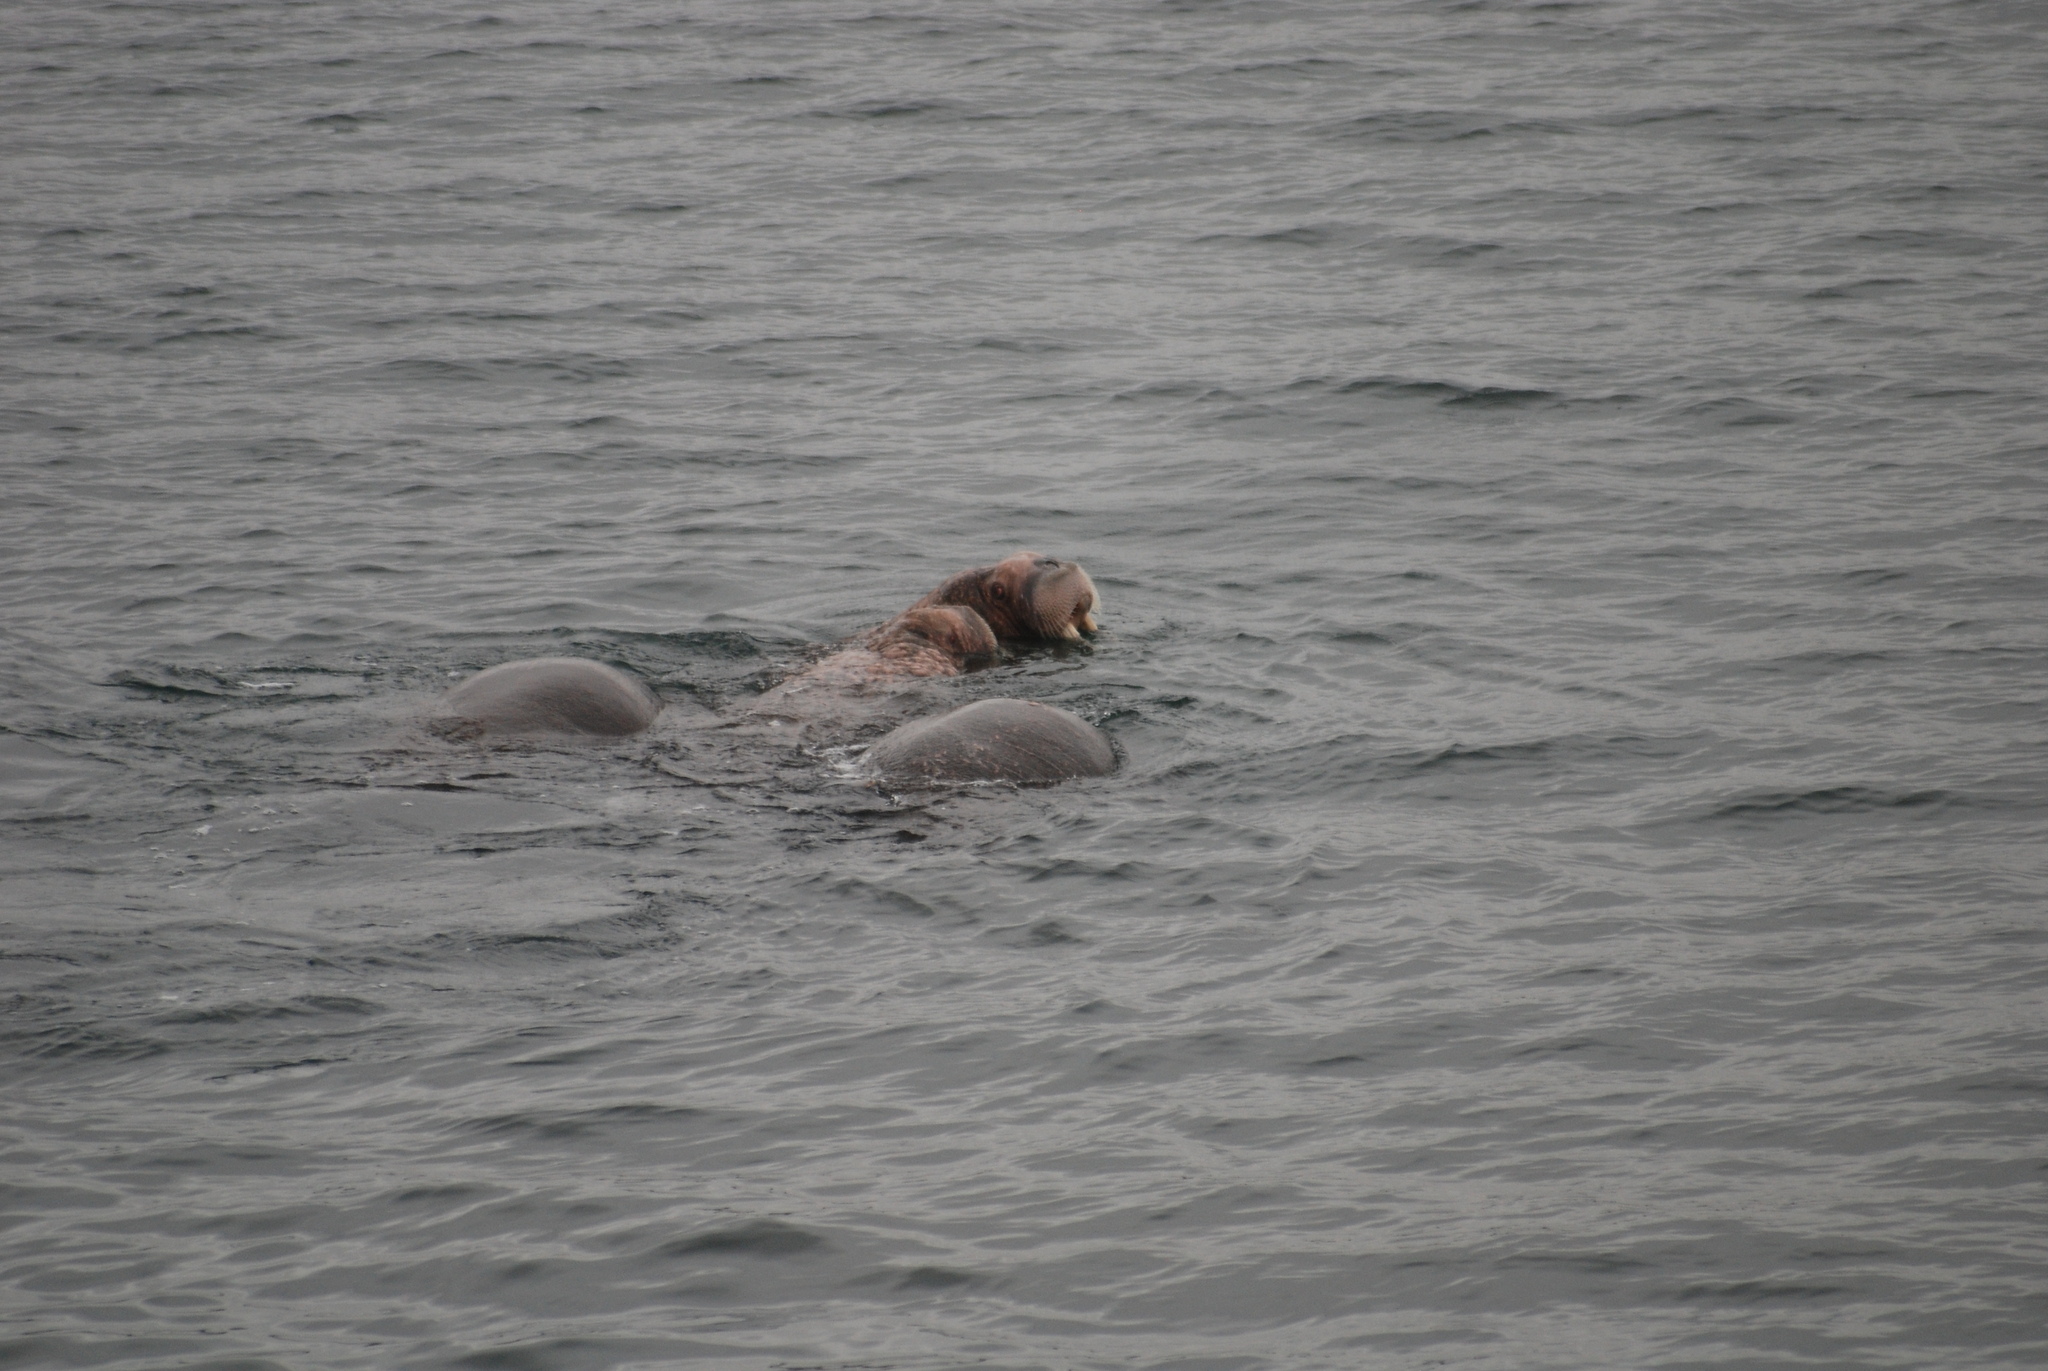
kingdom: Animalia
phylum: Chordata
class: Mammalia
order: Carnivora
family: Odobenidae
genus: Odobenus
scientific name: Odobenus rosmarus
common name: Walrus
